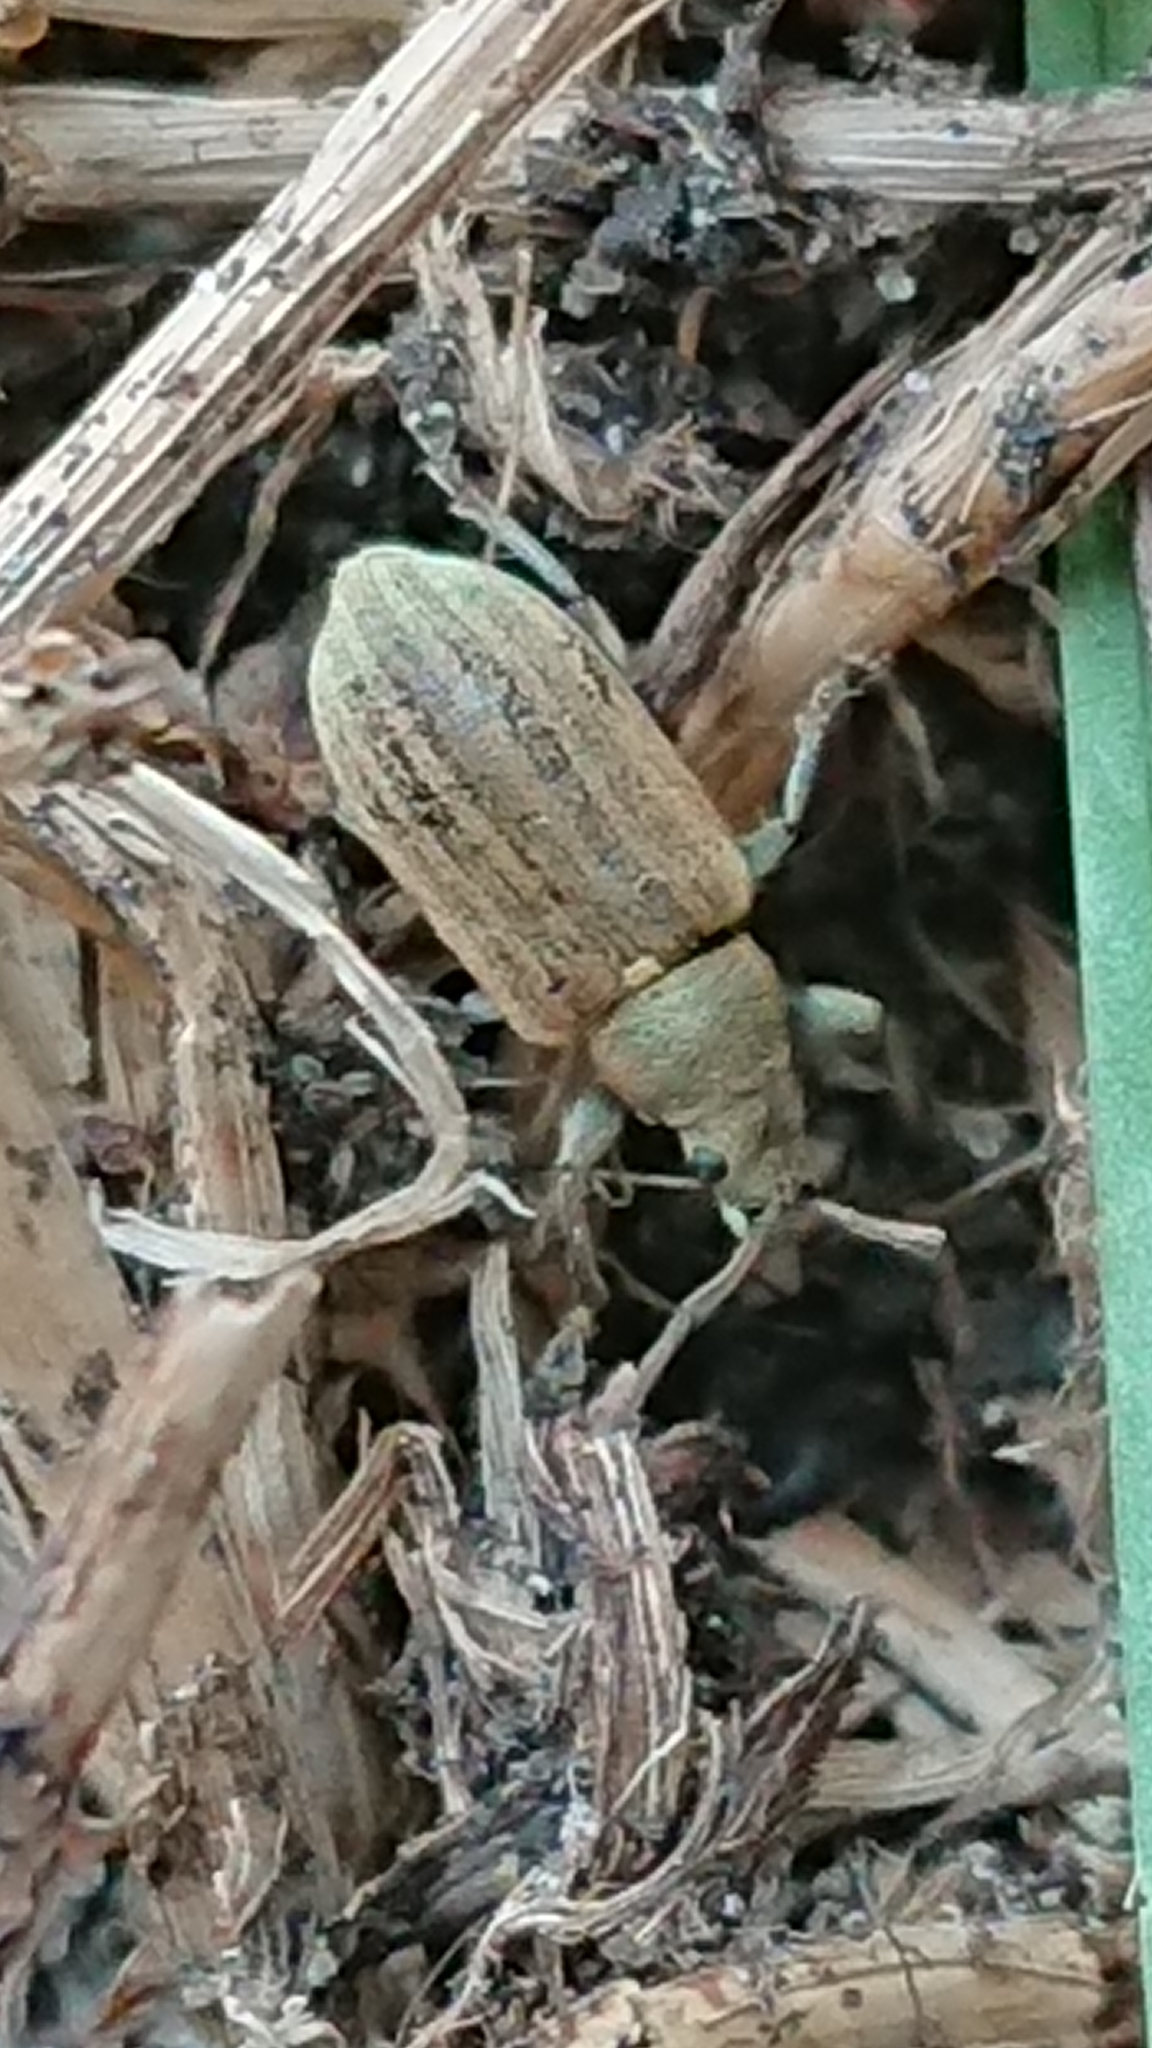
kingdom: Animalia
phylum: Arthropoda
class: Insecta
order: Coleoptera
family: Curculionidae
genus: Phyllobius
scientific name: Phyllobius pyri
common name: Common leaf weevil
